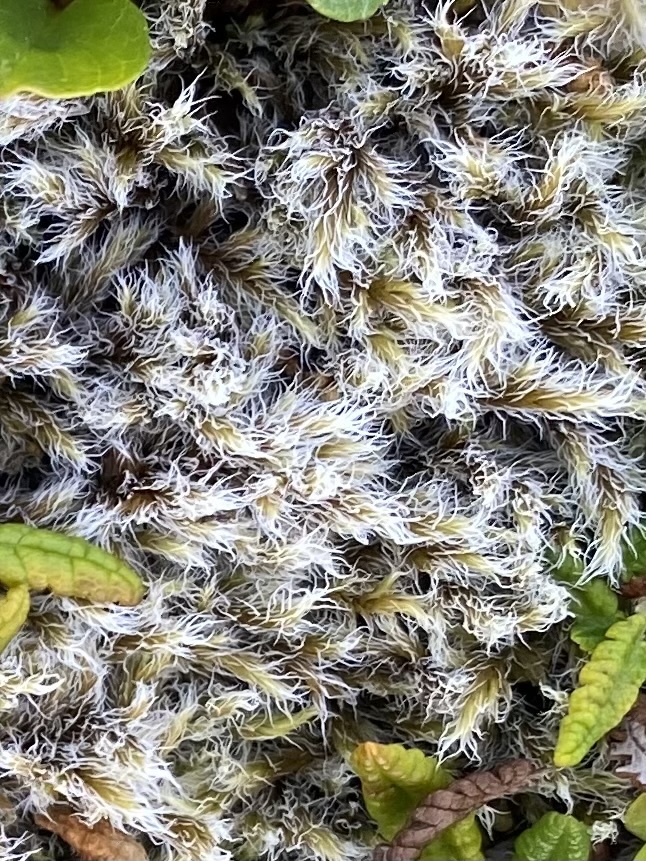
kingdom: Plantae
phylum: Bryophyta
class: Bryopsida
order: Grimmiales
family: Grimmiaceae
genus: Racomitrium
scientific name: Racomitrium lanuginosum
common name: Hoary rock moss
